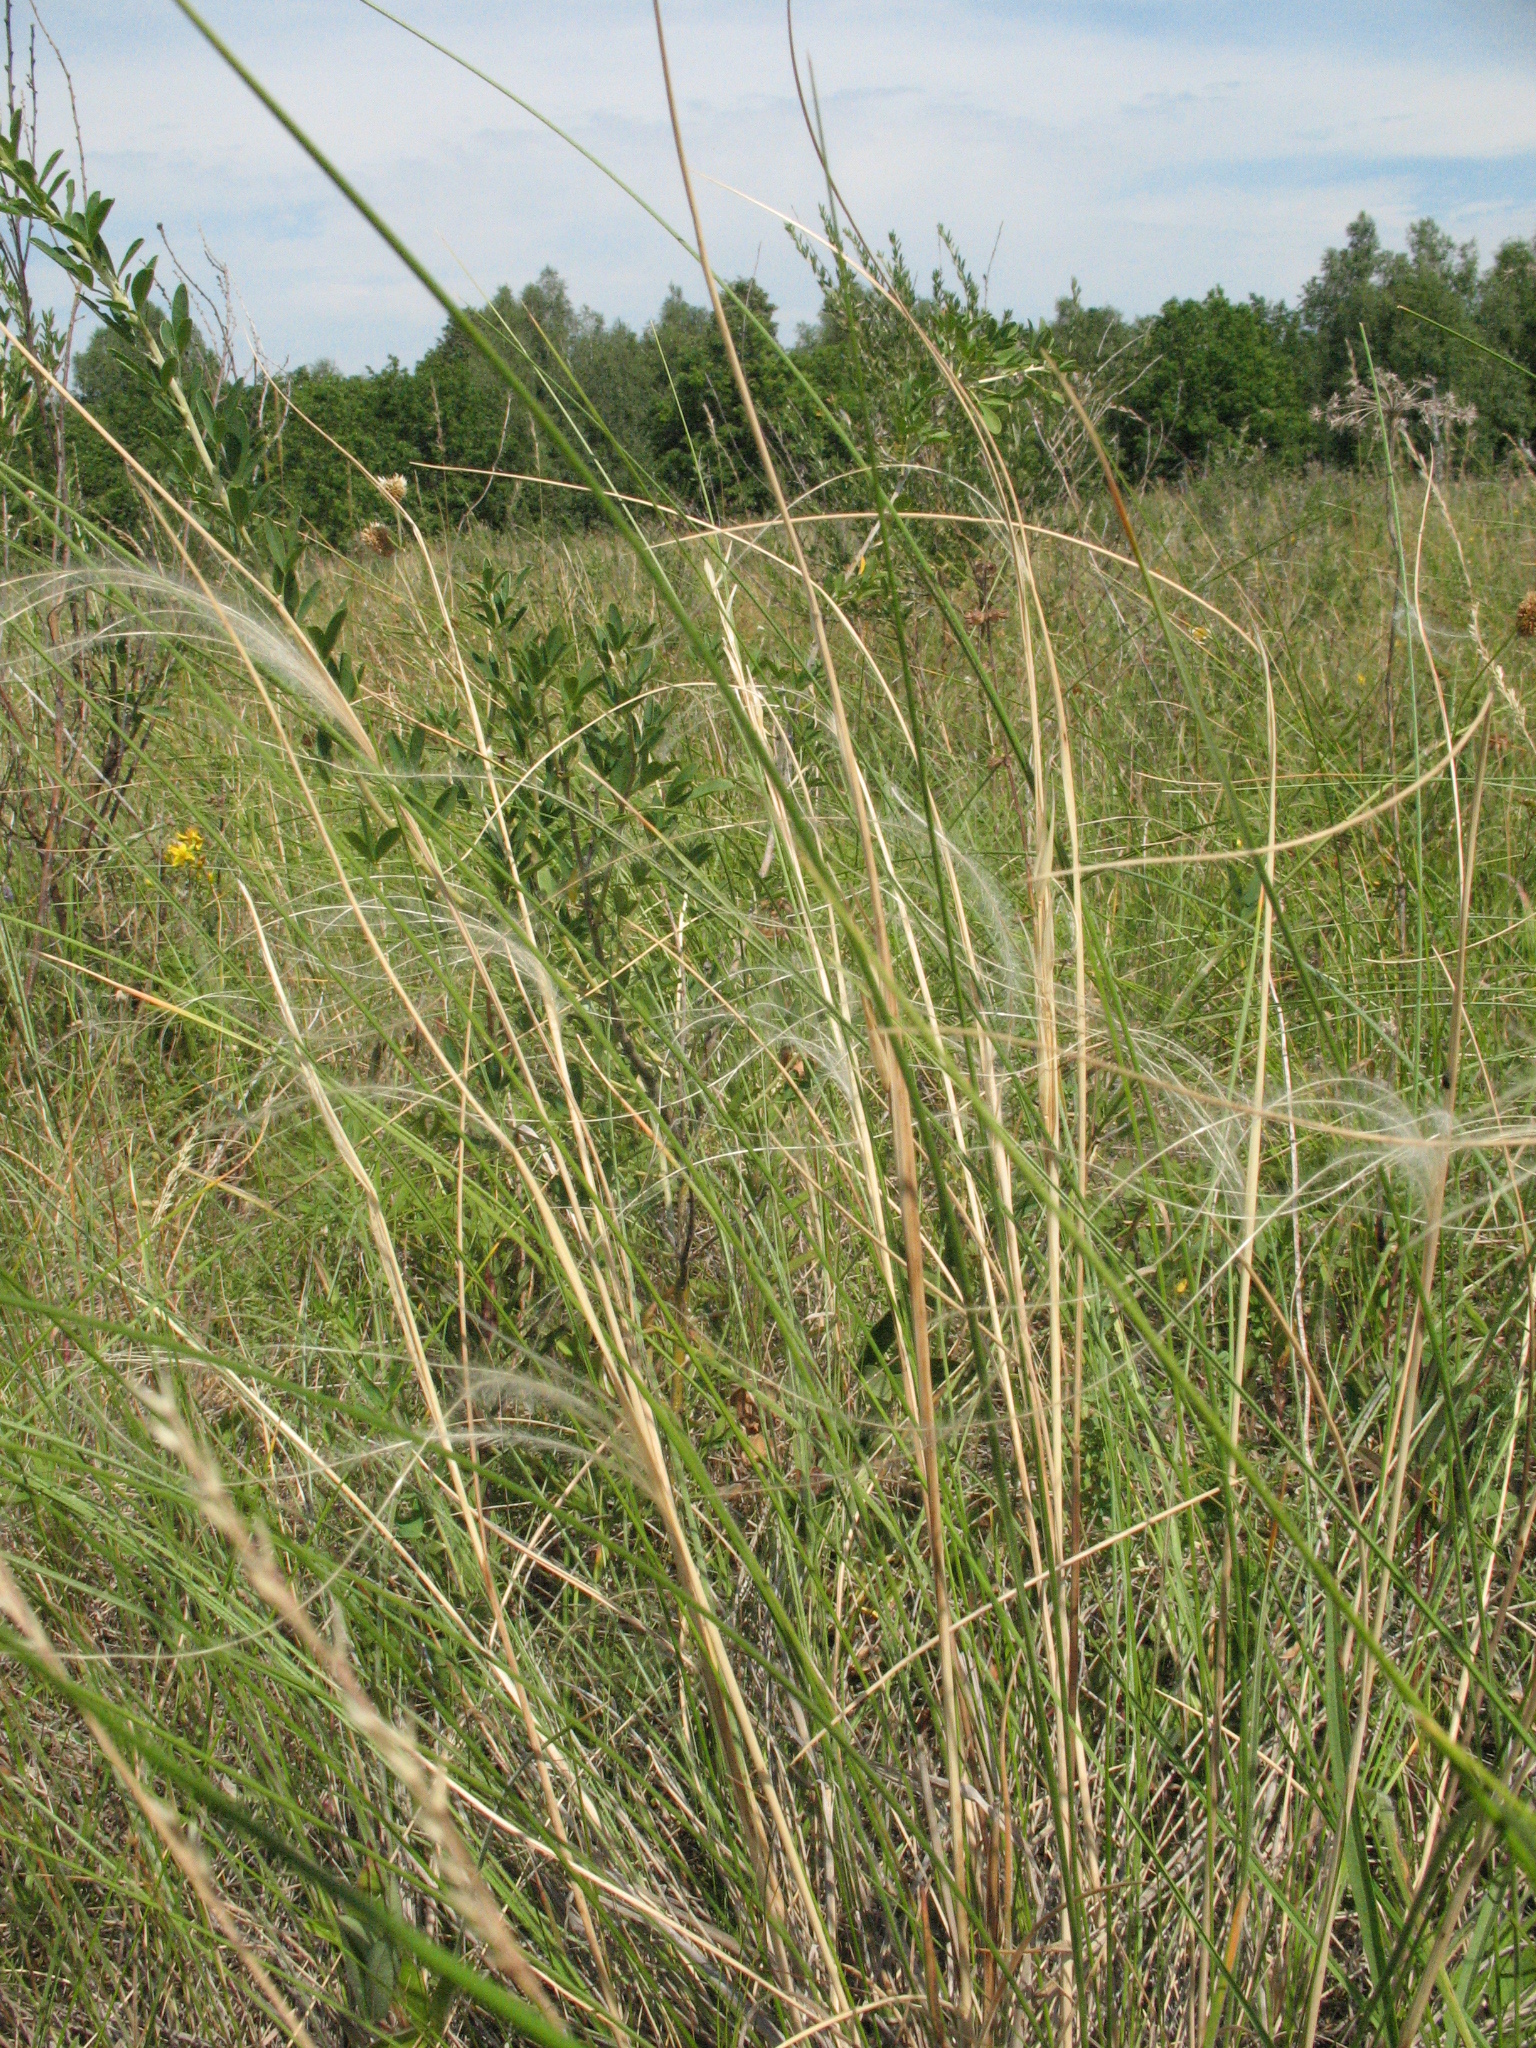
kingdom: Plantae
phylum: Tracheophyta
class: Liliopsida
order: Poales
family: Poaceae
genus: Stipa
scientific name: Stipa dasyphylla
